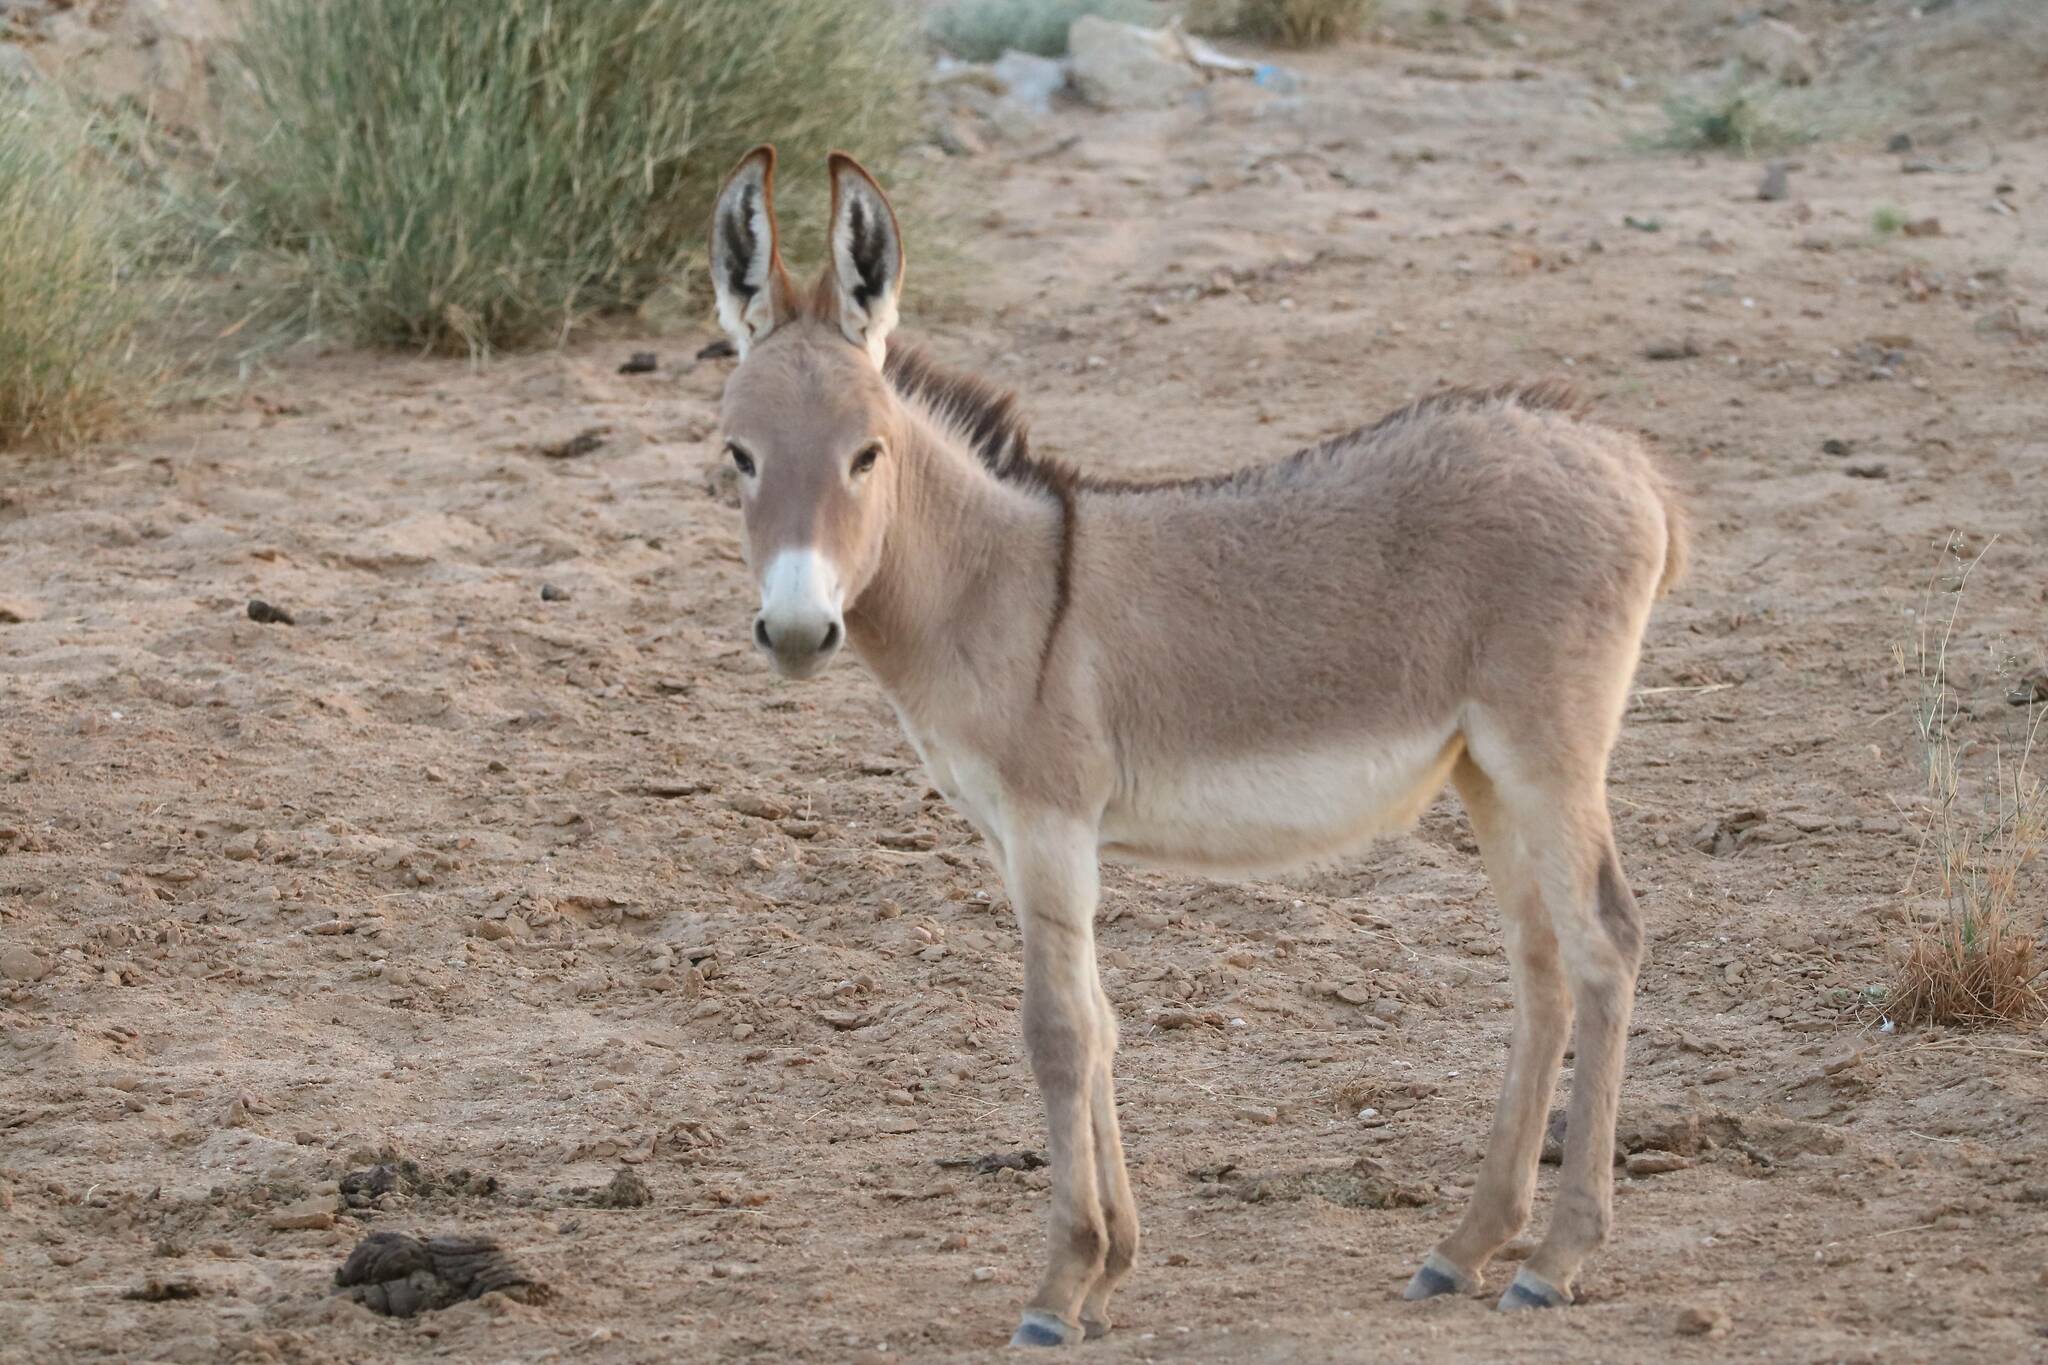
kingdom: Animalia
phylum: Chordata
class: Mammalia
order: Perissodactyla
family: Equidae
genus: Equus
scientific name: Equus asinus
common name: Ass
